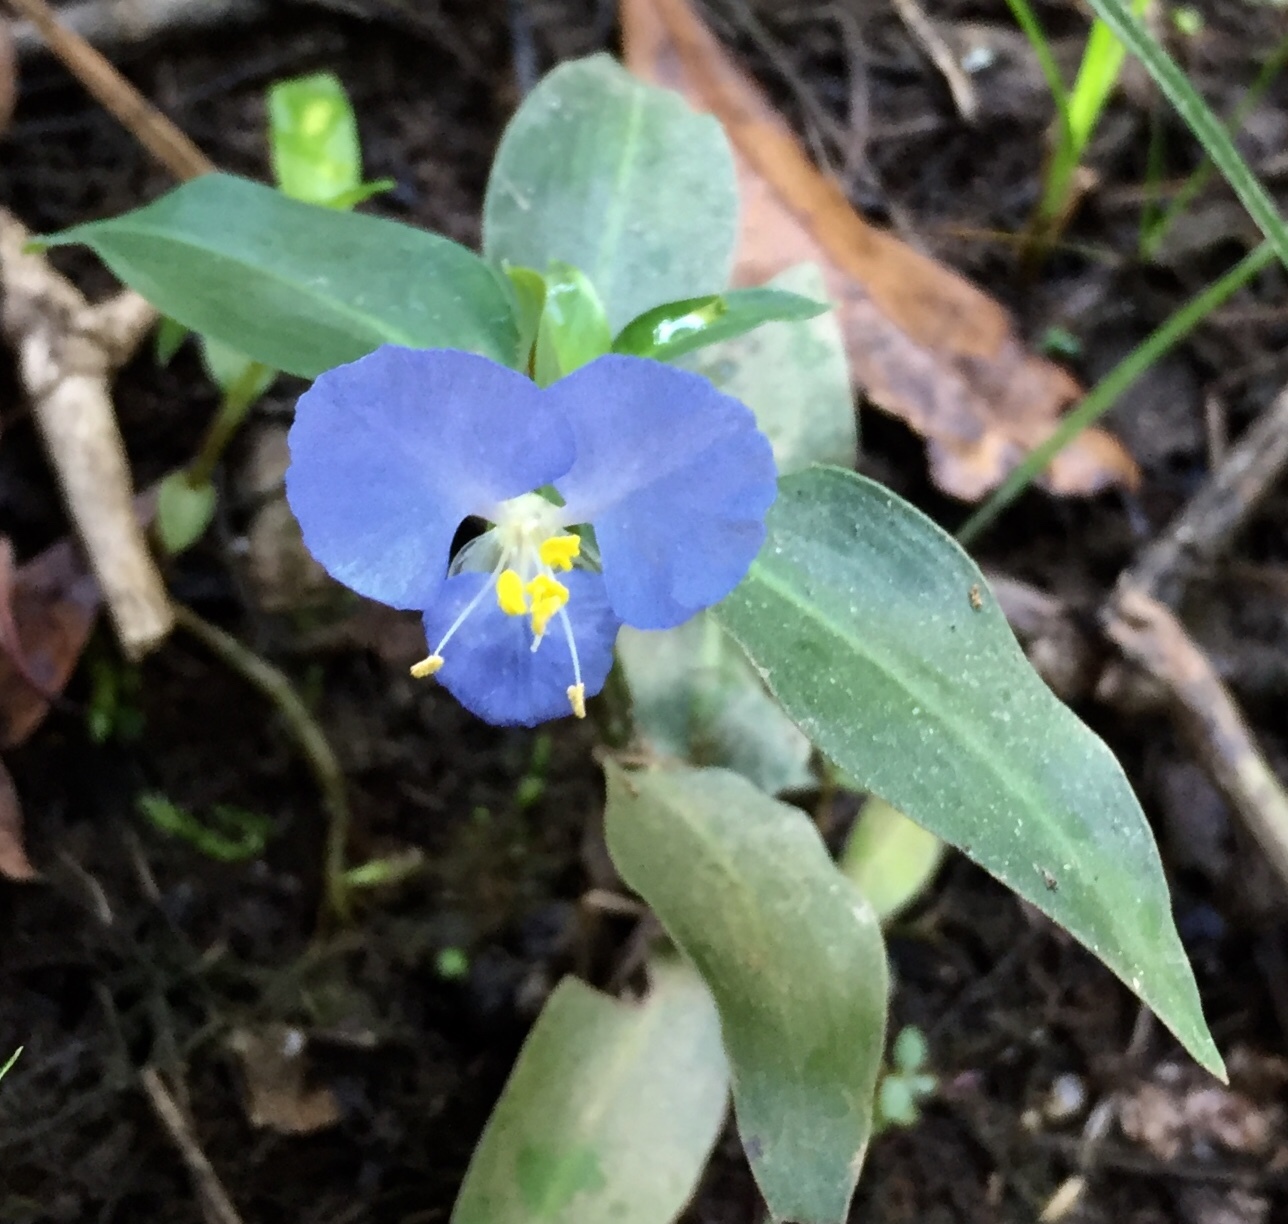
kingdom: Plantae
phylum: Tracheophyta
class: Liliopsida
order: Commelinales
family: Commelinaceae
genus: Commelina
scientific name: Commelina virginica
